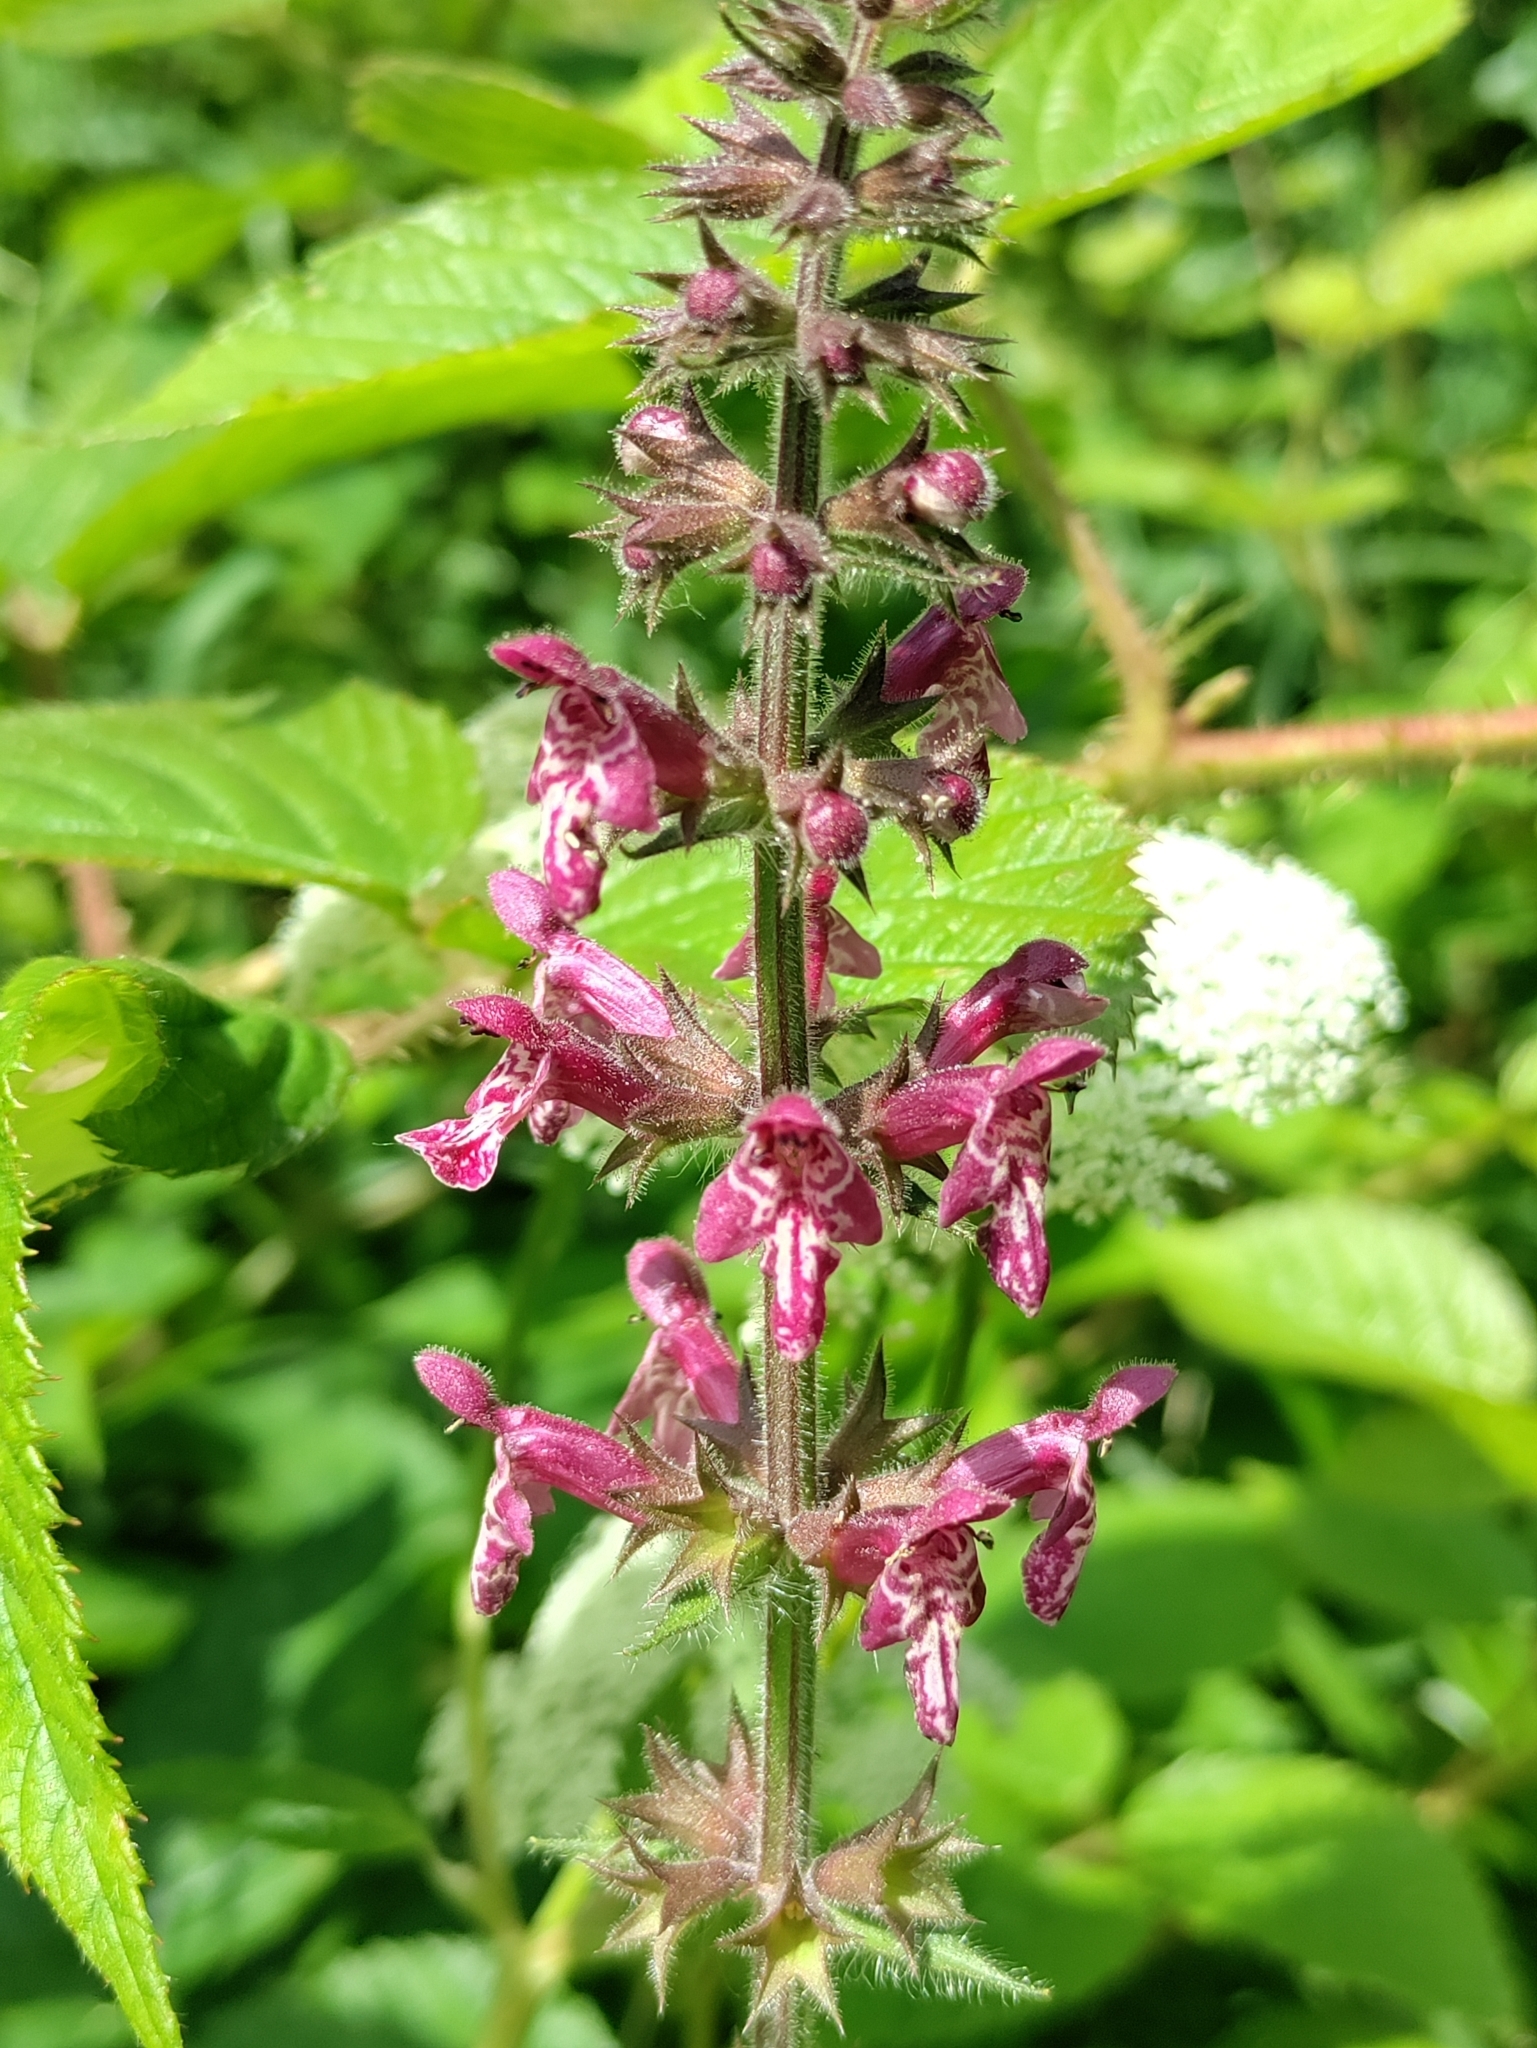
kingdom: Plantae
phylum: Tracheophyta
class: Magnoliopsida
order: Lamiales
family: Lamiaceae
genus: Stachys
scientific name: Stachys sylvatica
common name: Hedge woundwort
